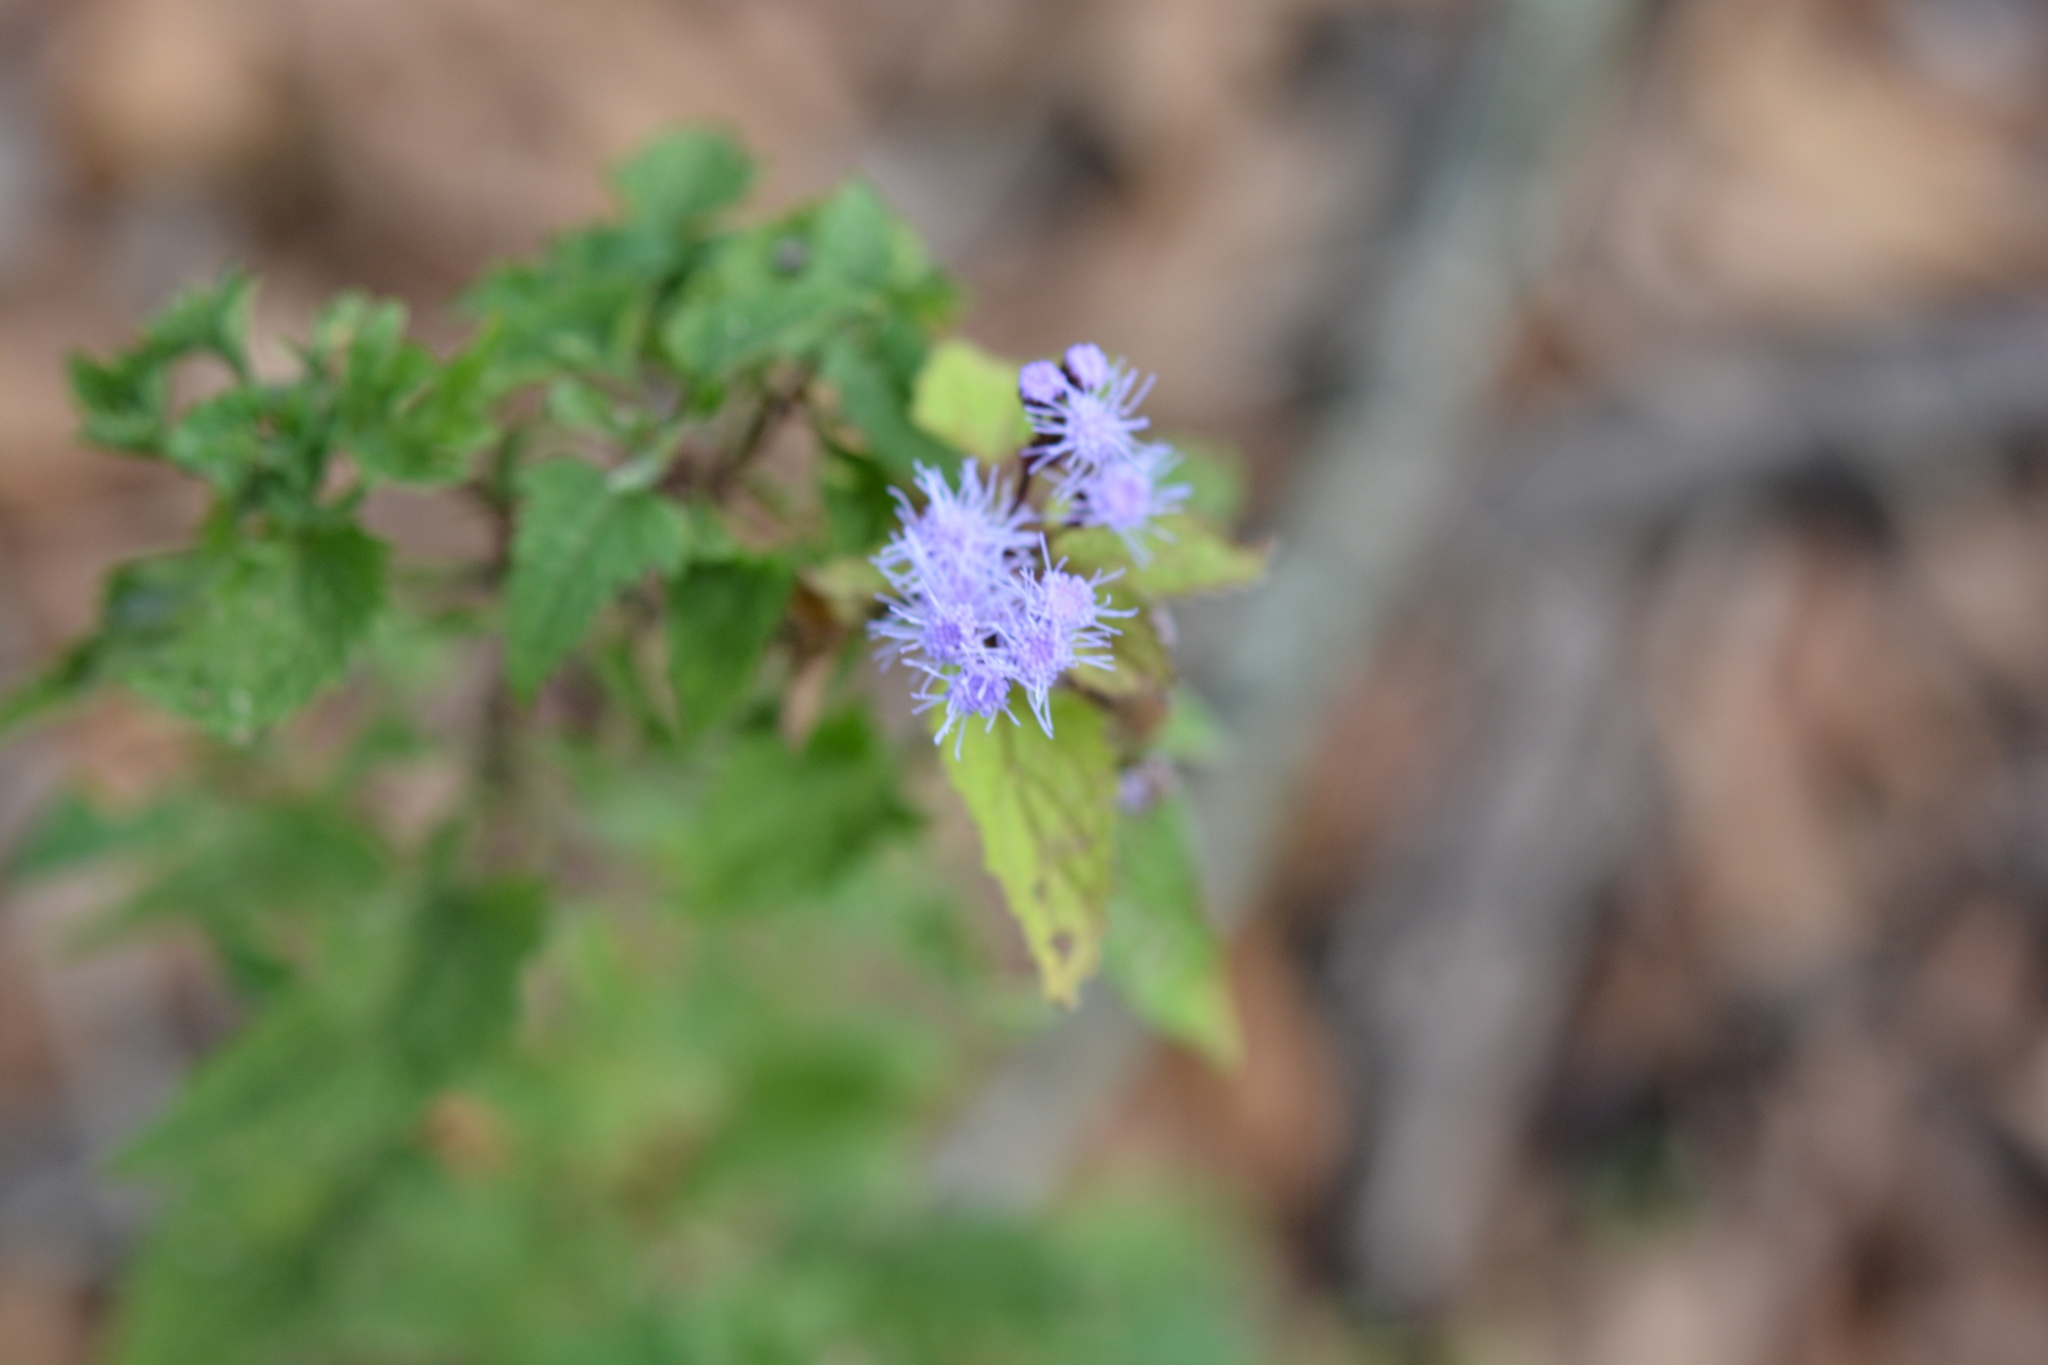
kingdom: Plantae
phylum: Tracheophyta
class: Magnoliopsida
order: Asterales
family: Asteraceae
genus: Conoclinium
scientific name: Conoclinium coelestinum
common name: Blue mistflower
